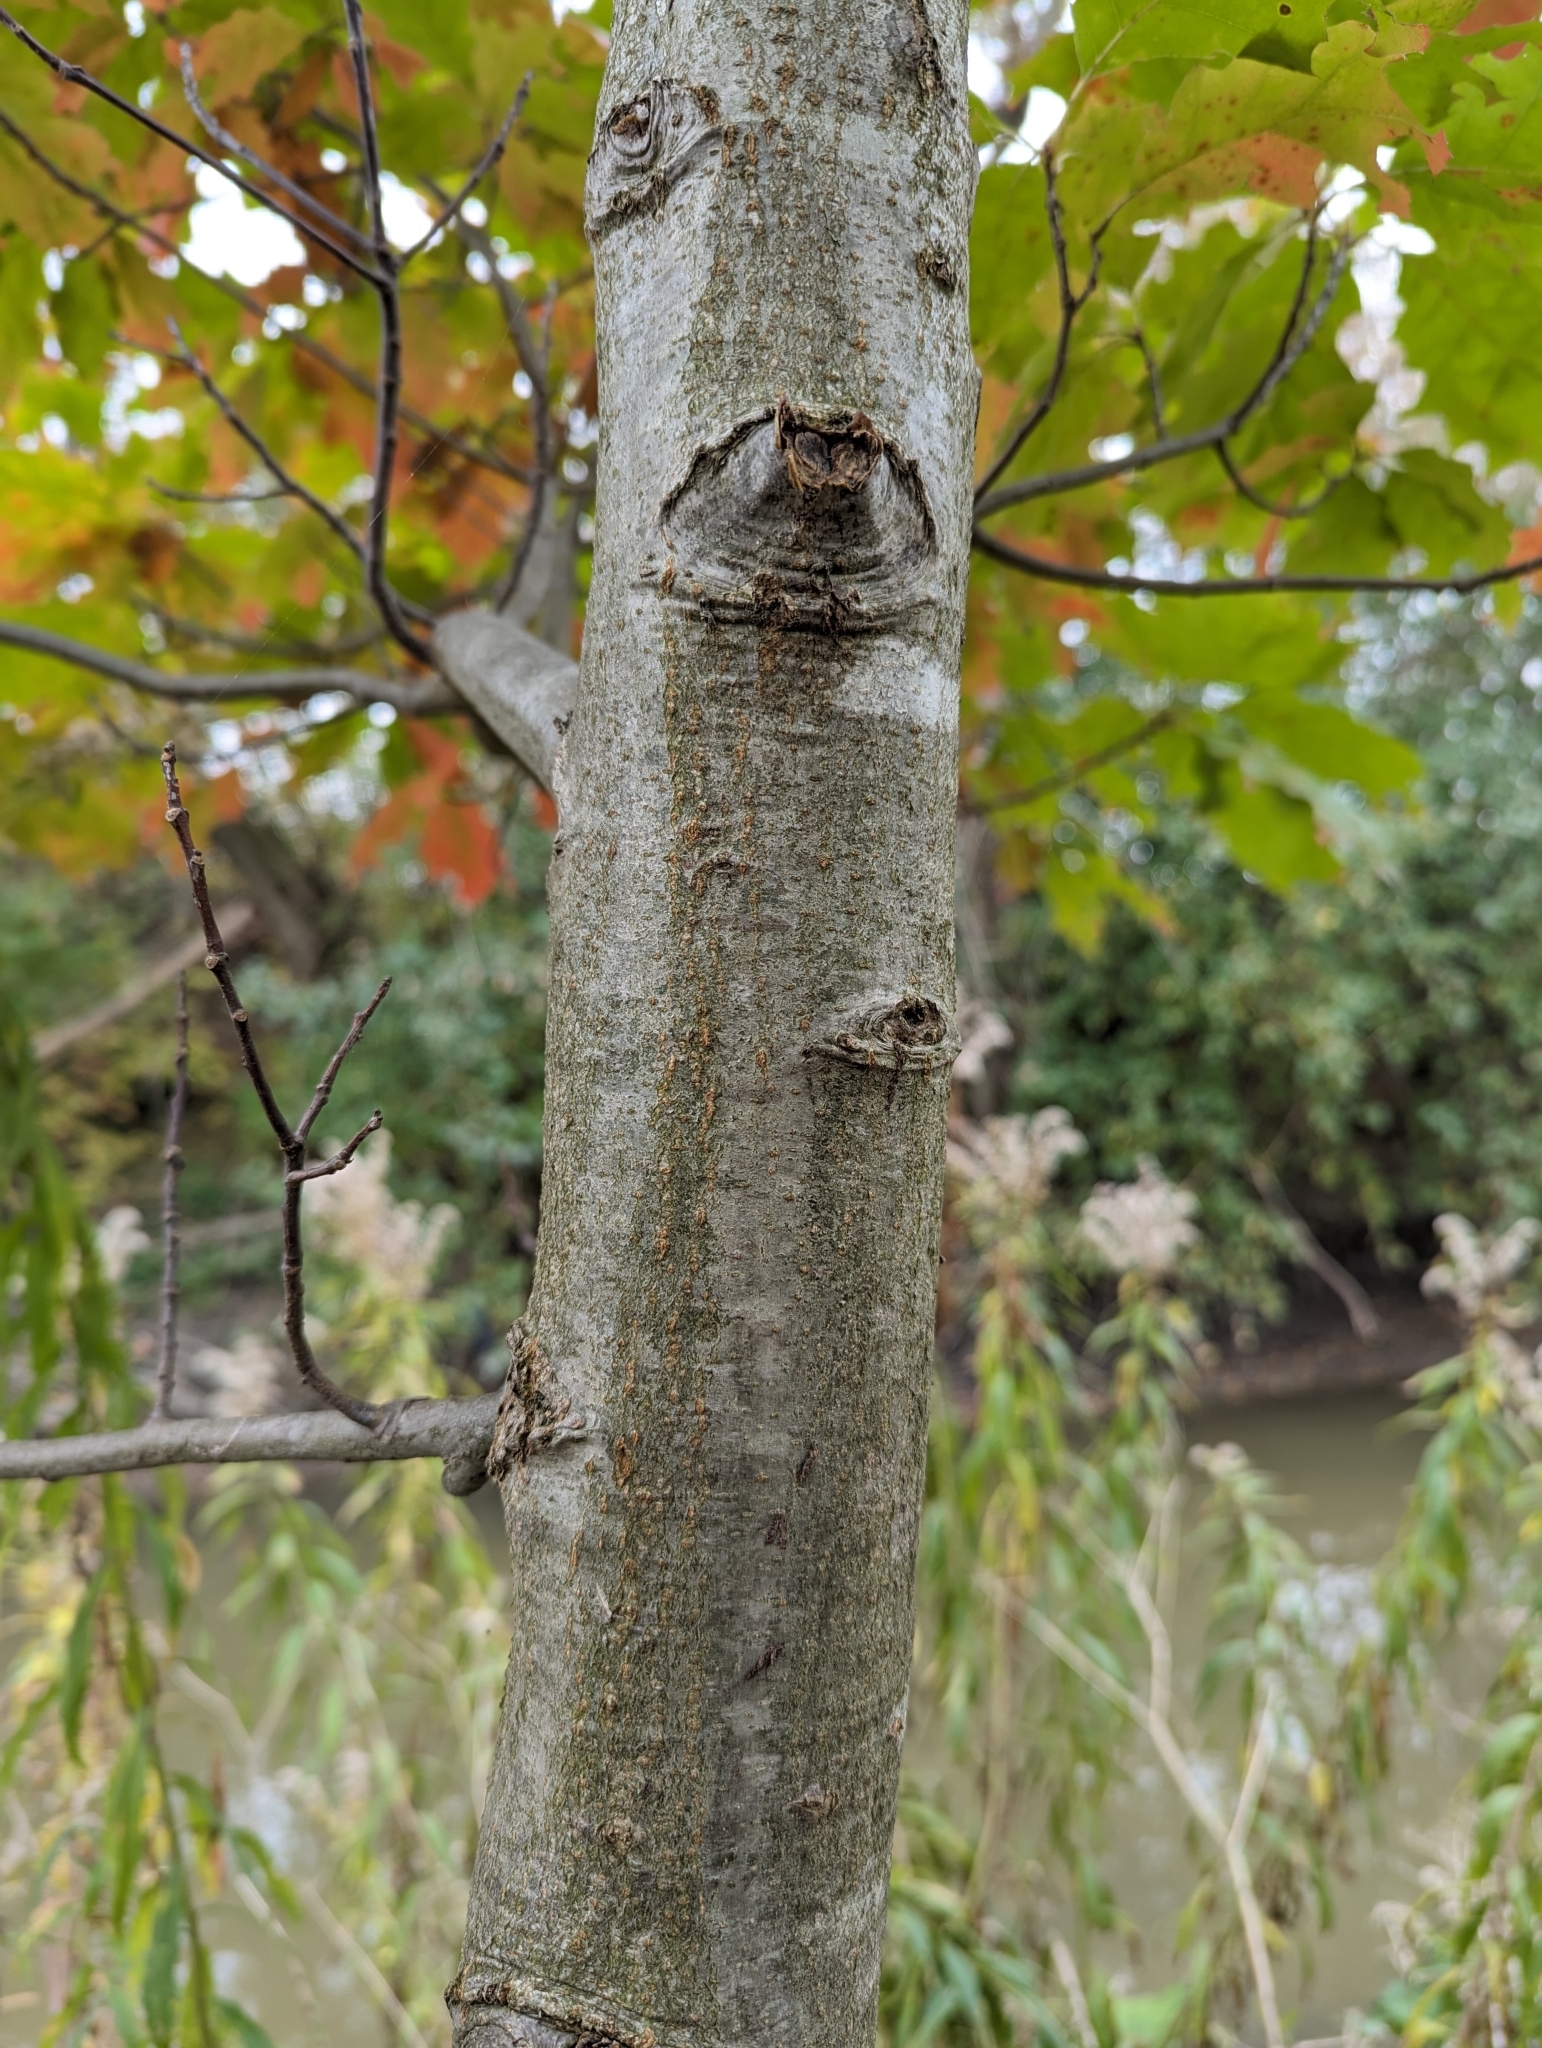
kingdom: Plantae
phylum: Tracheophyta
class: Magnoliopsida
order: Fagales
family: Fagaceae
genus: Quercus
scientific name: Quercus rubra
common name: Red oak
